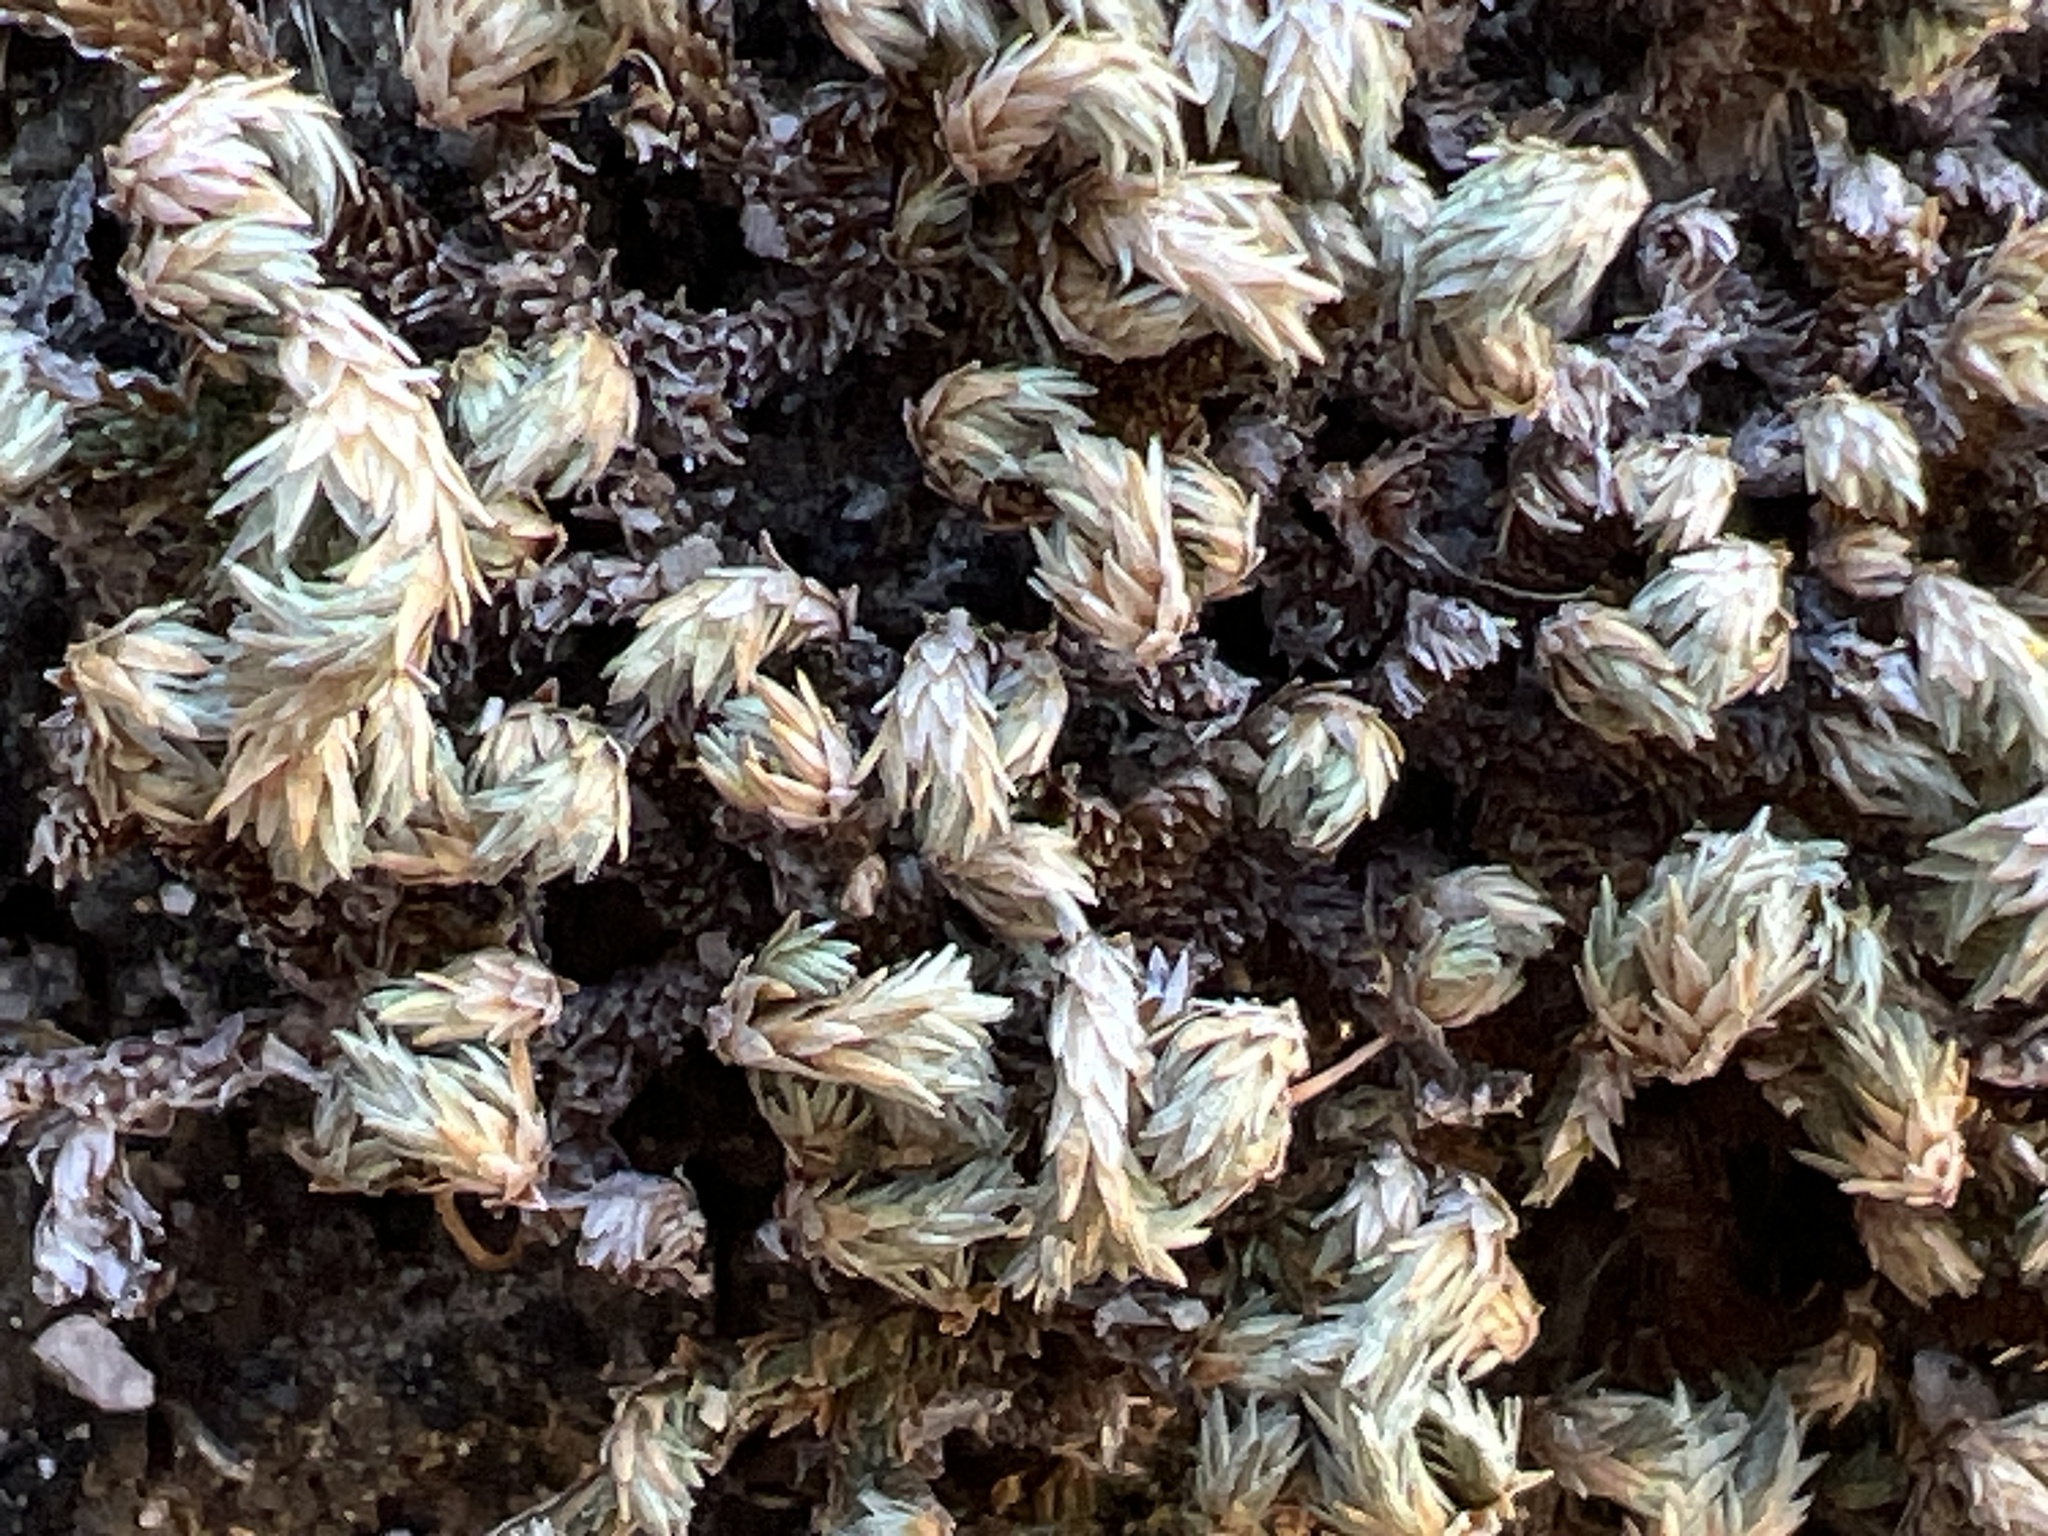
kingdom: Plantae
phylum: Tracheophyta
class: Lycopodiopsida
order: Selaginellales
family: Selaginellaceae
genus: Selaginella
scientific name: Selaginella eremophila
